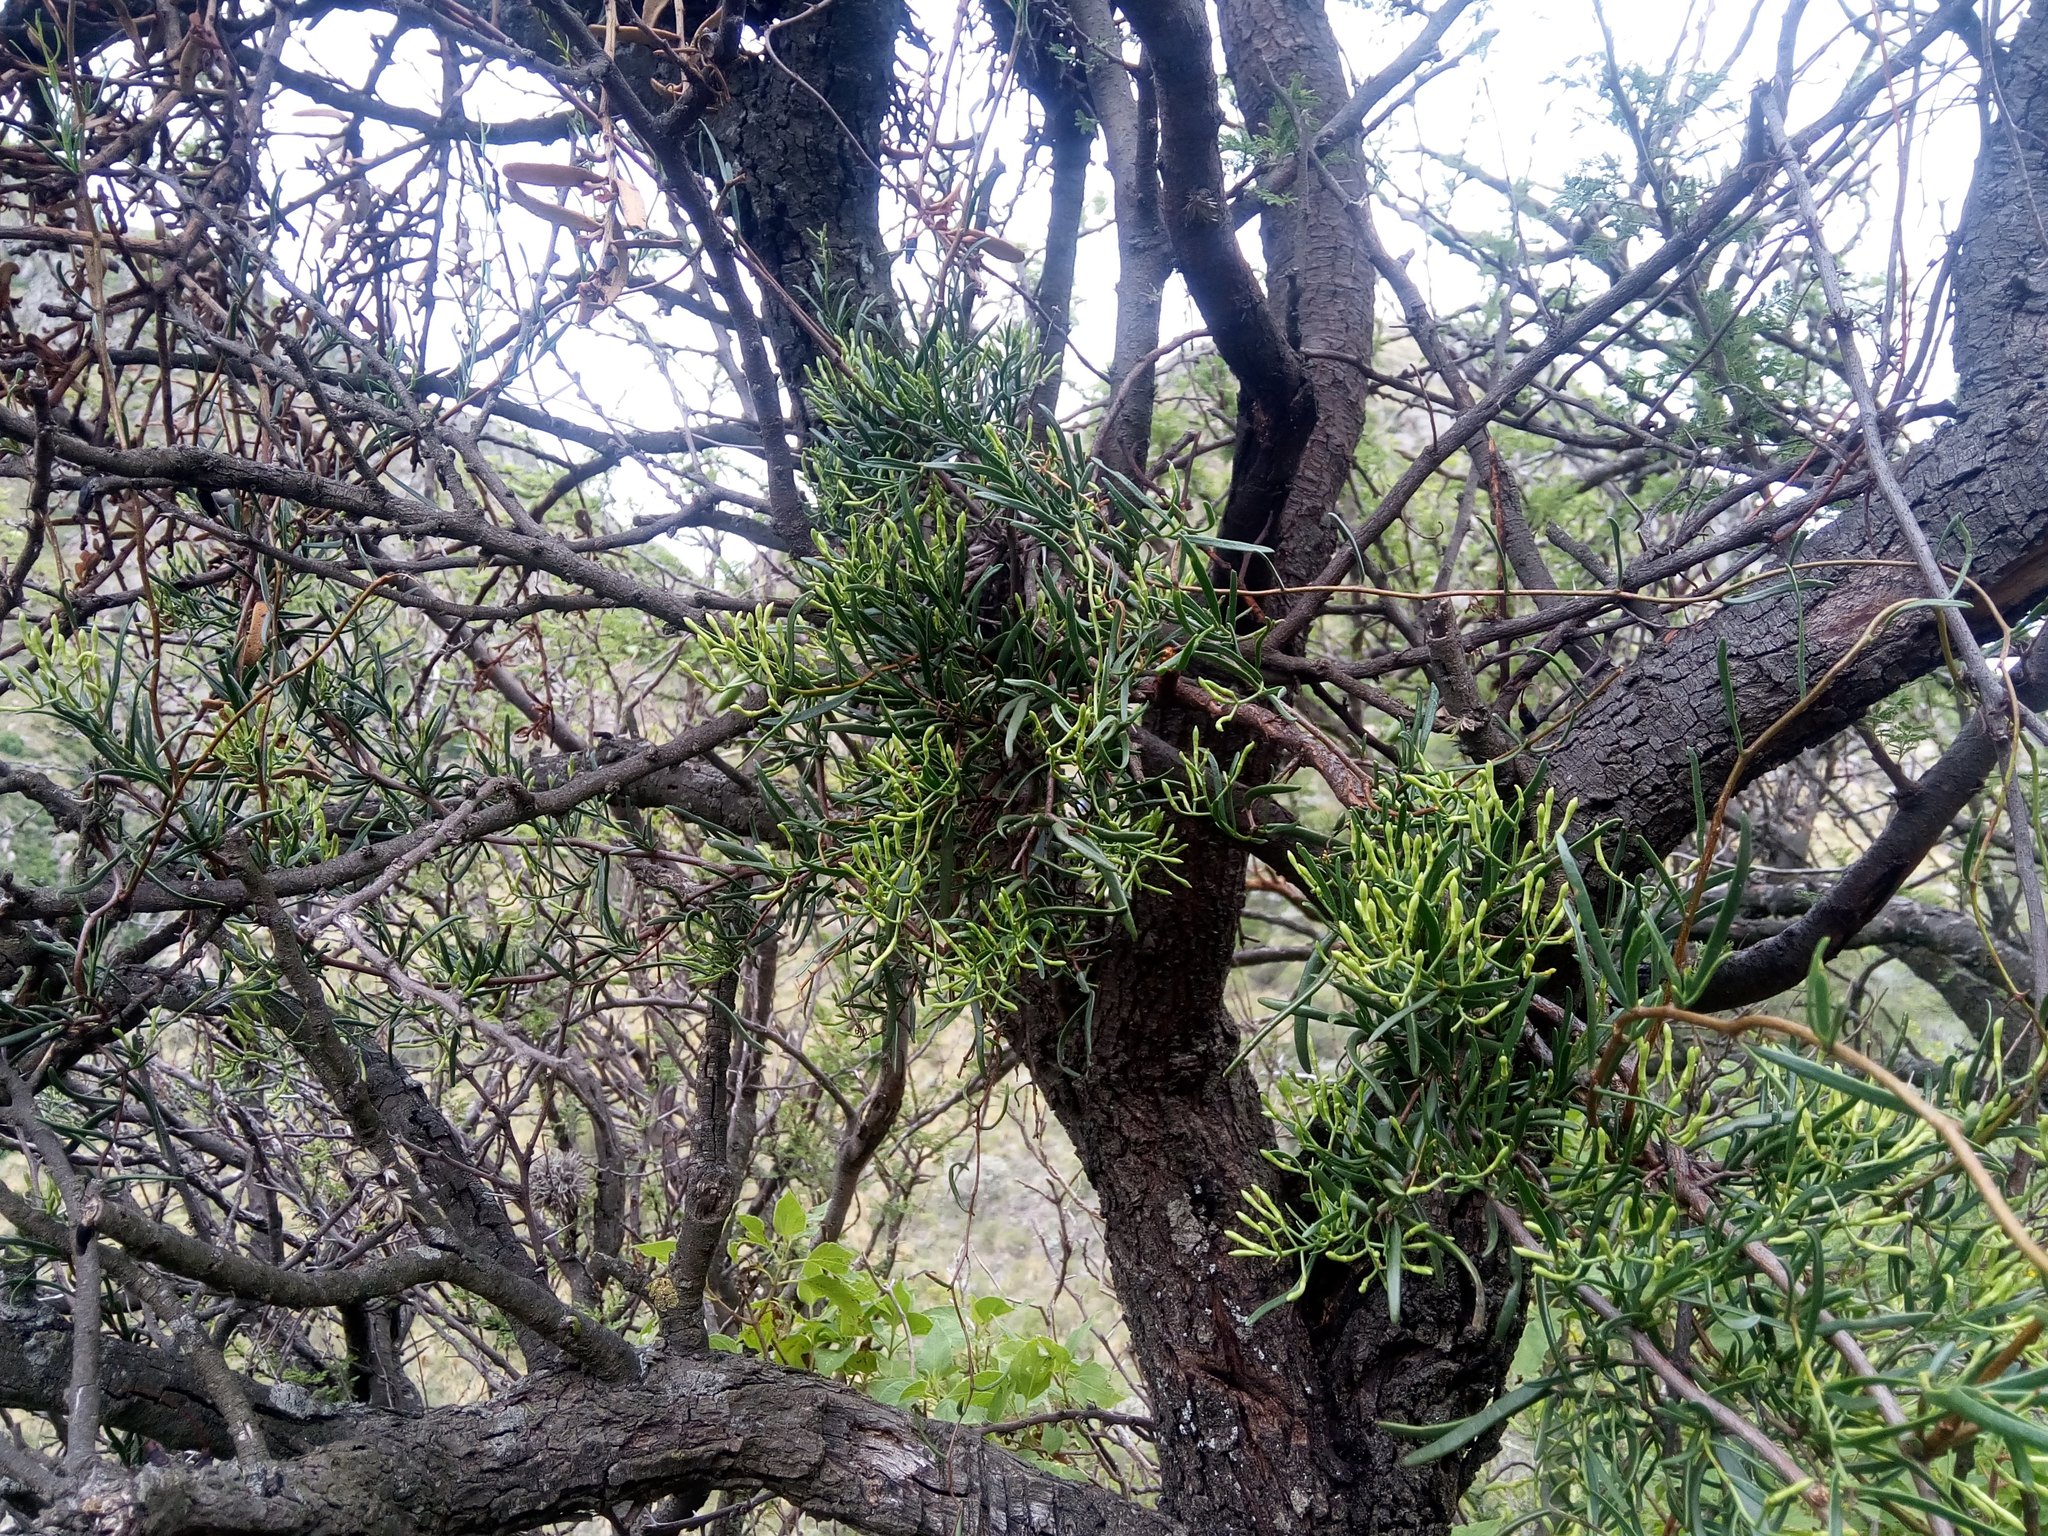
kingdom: Plantae
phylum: Tracheophyta
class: Magnoliopsida
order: Santalales
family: Loranthaceae
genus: Tripodanthus
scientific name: Tripodanthus flagellaris
